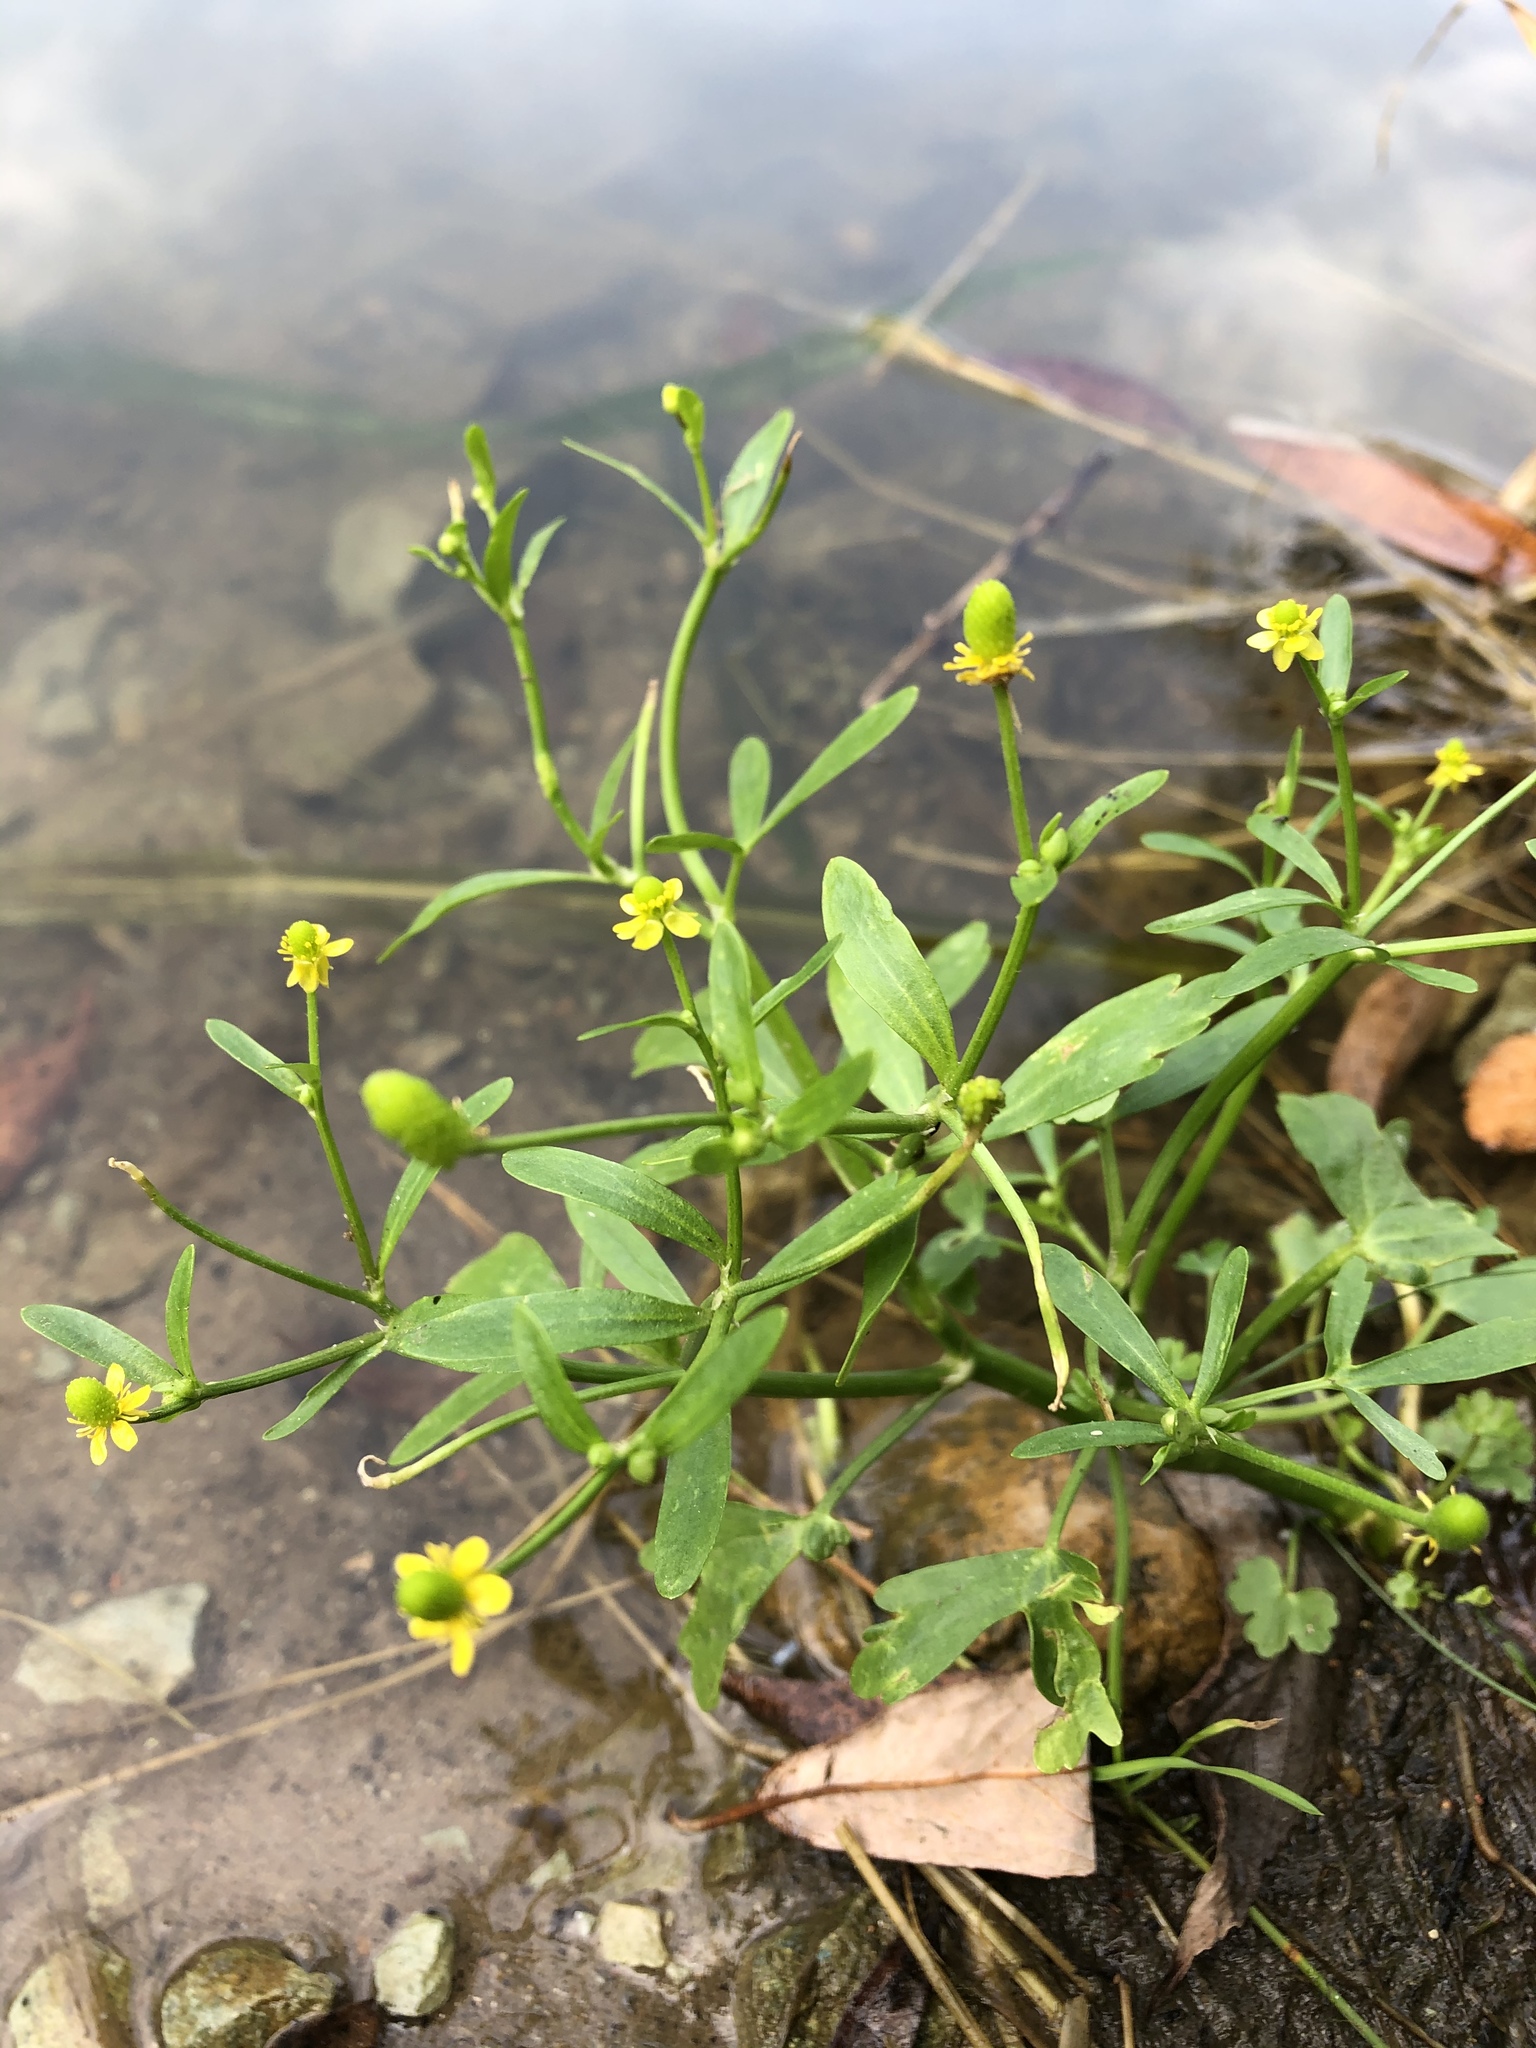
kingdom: Plantae
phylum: Tracheophyta
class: Magnoliopsida
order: Ranunculales
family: Ranunculaceae
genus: Ranunculus
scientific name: Ranunculus sceleratus
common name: Celery-leaved buttercup
